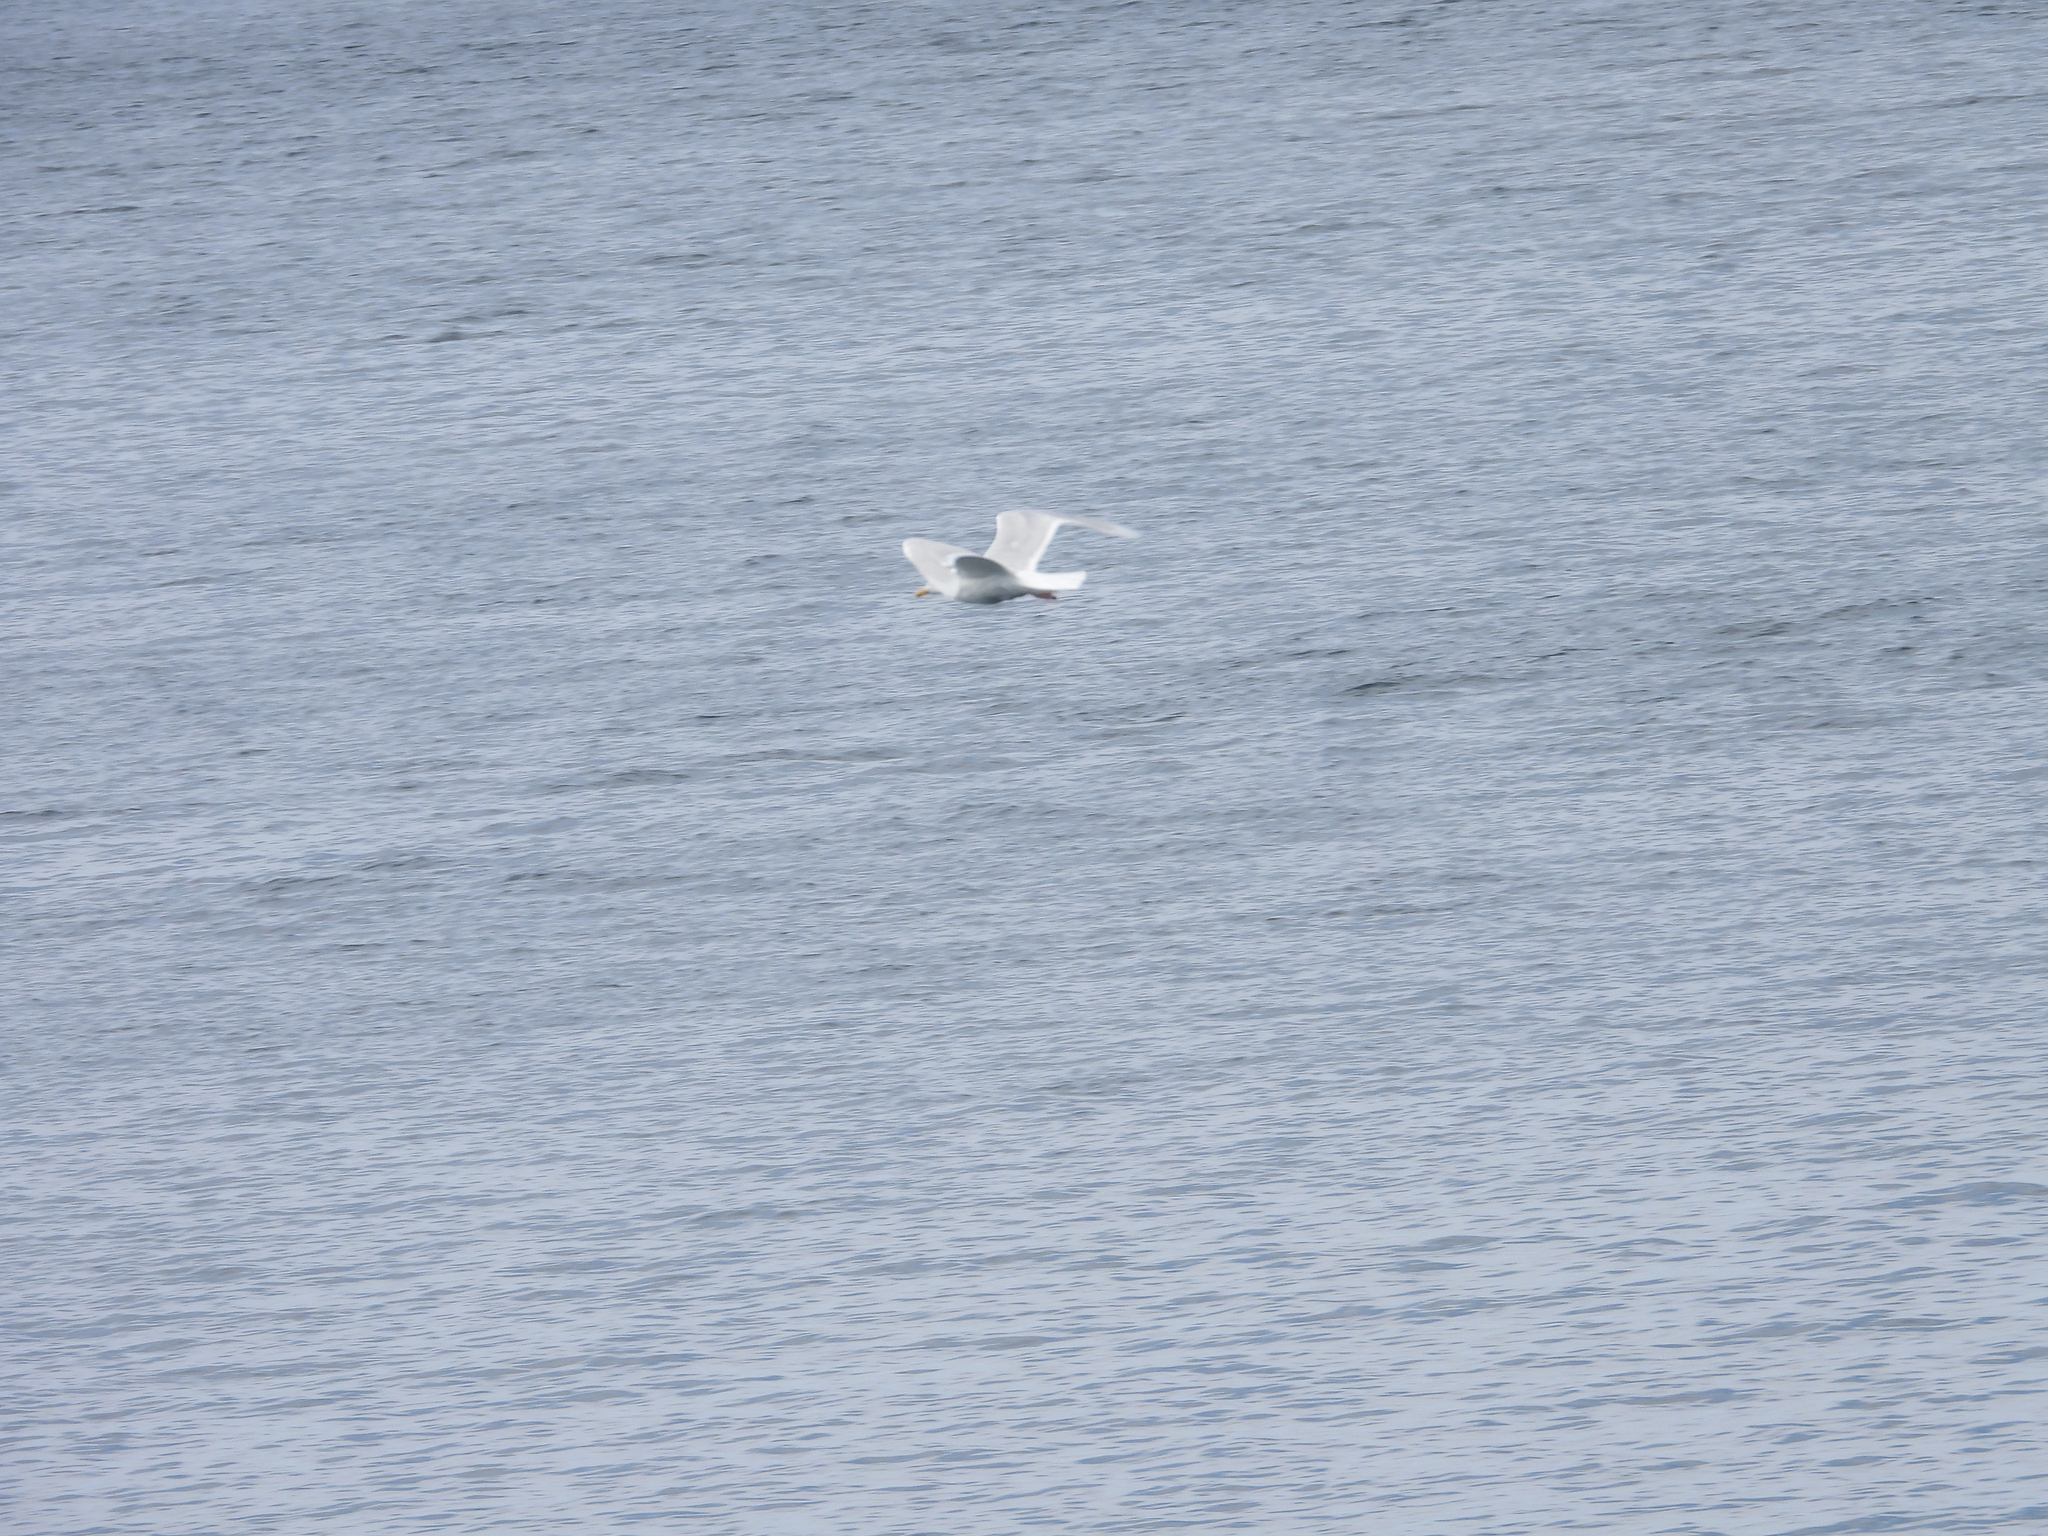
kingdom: Animalia
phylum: Chordata
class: Aves
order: Charadriiformes
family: Laridae
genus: Larus
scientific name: Larus glaucoides
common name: Iceland gull
